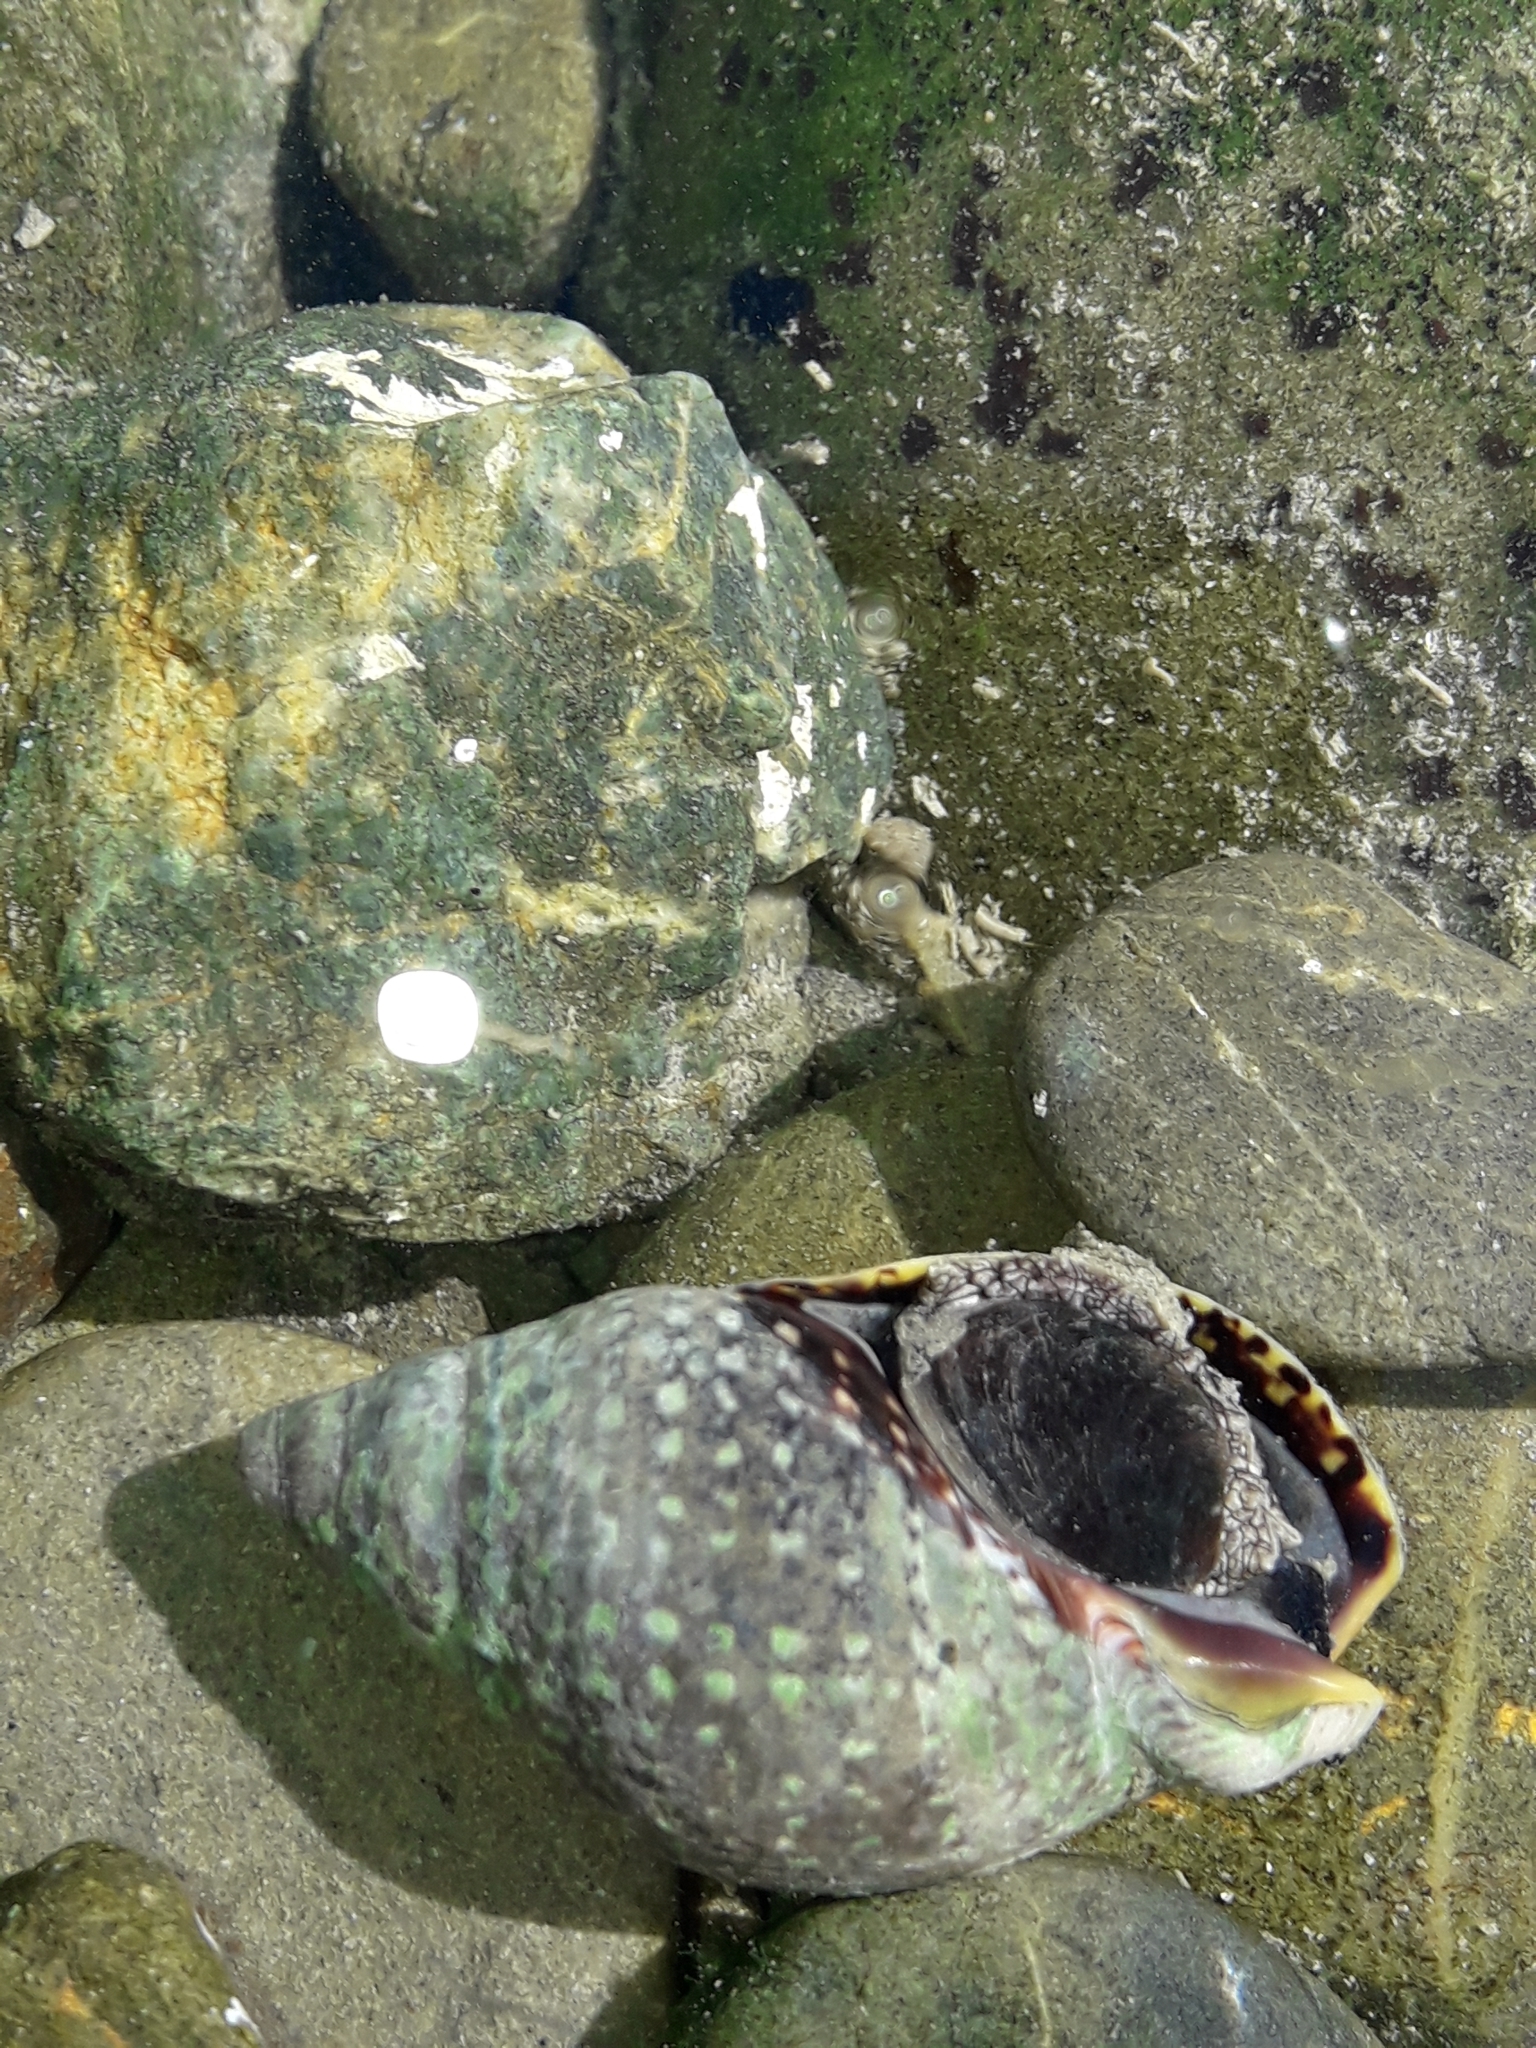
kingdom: Animalia
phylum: Mollusca
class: Gastropoda
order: Neogastropoda
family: Cominellidae
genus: Cominella
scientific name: Cominella maculosa
